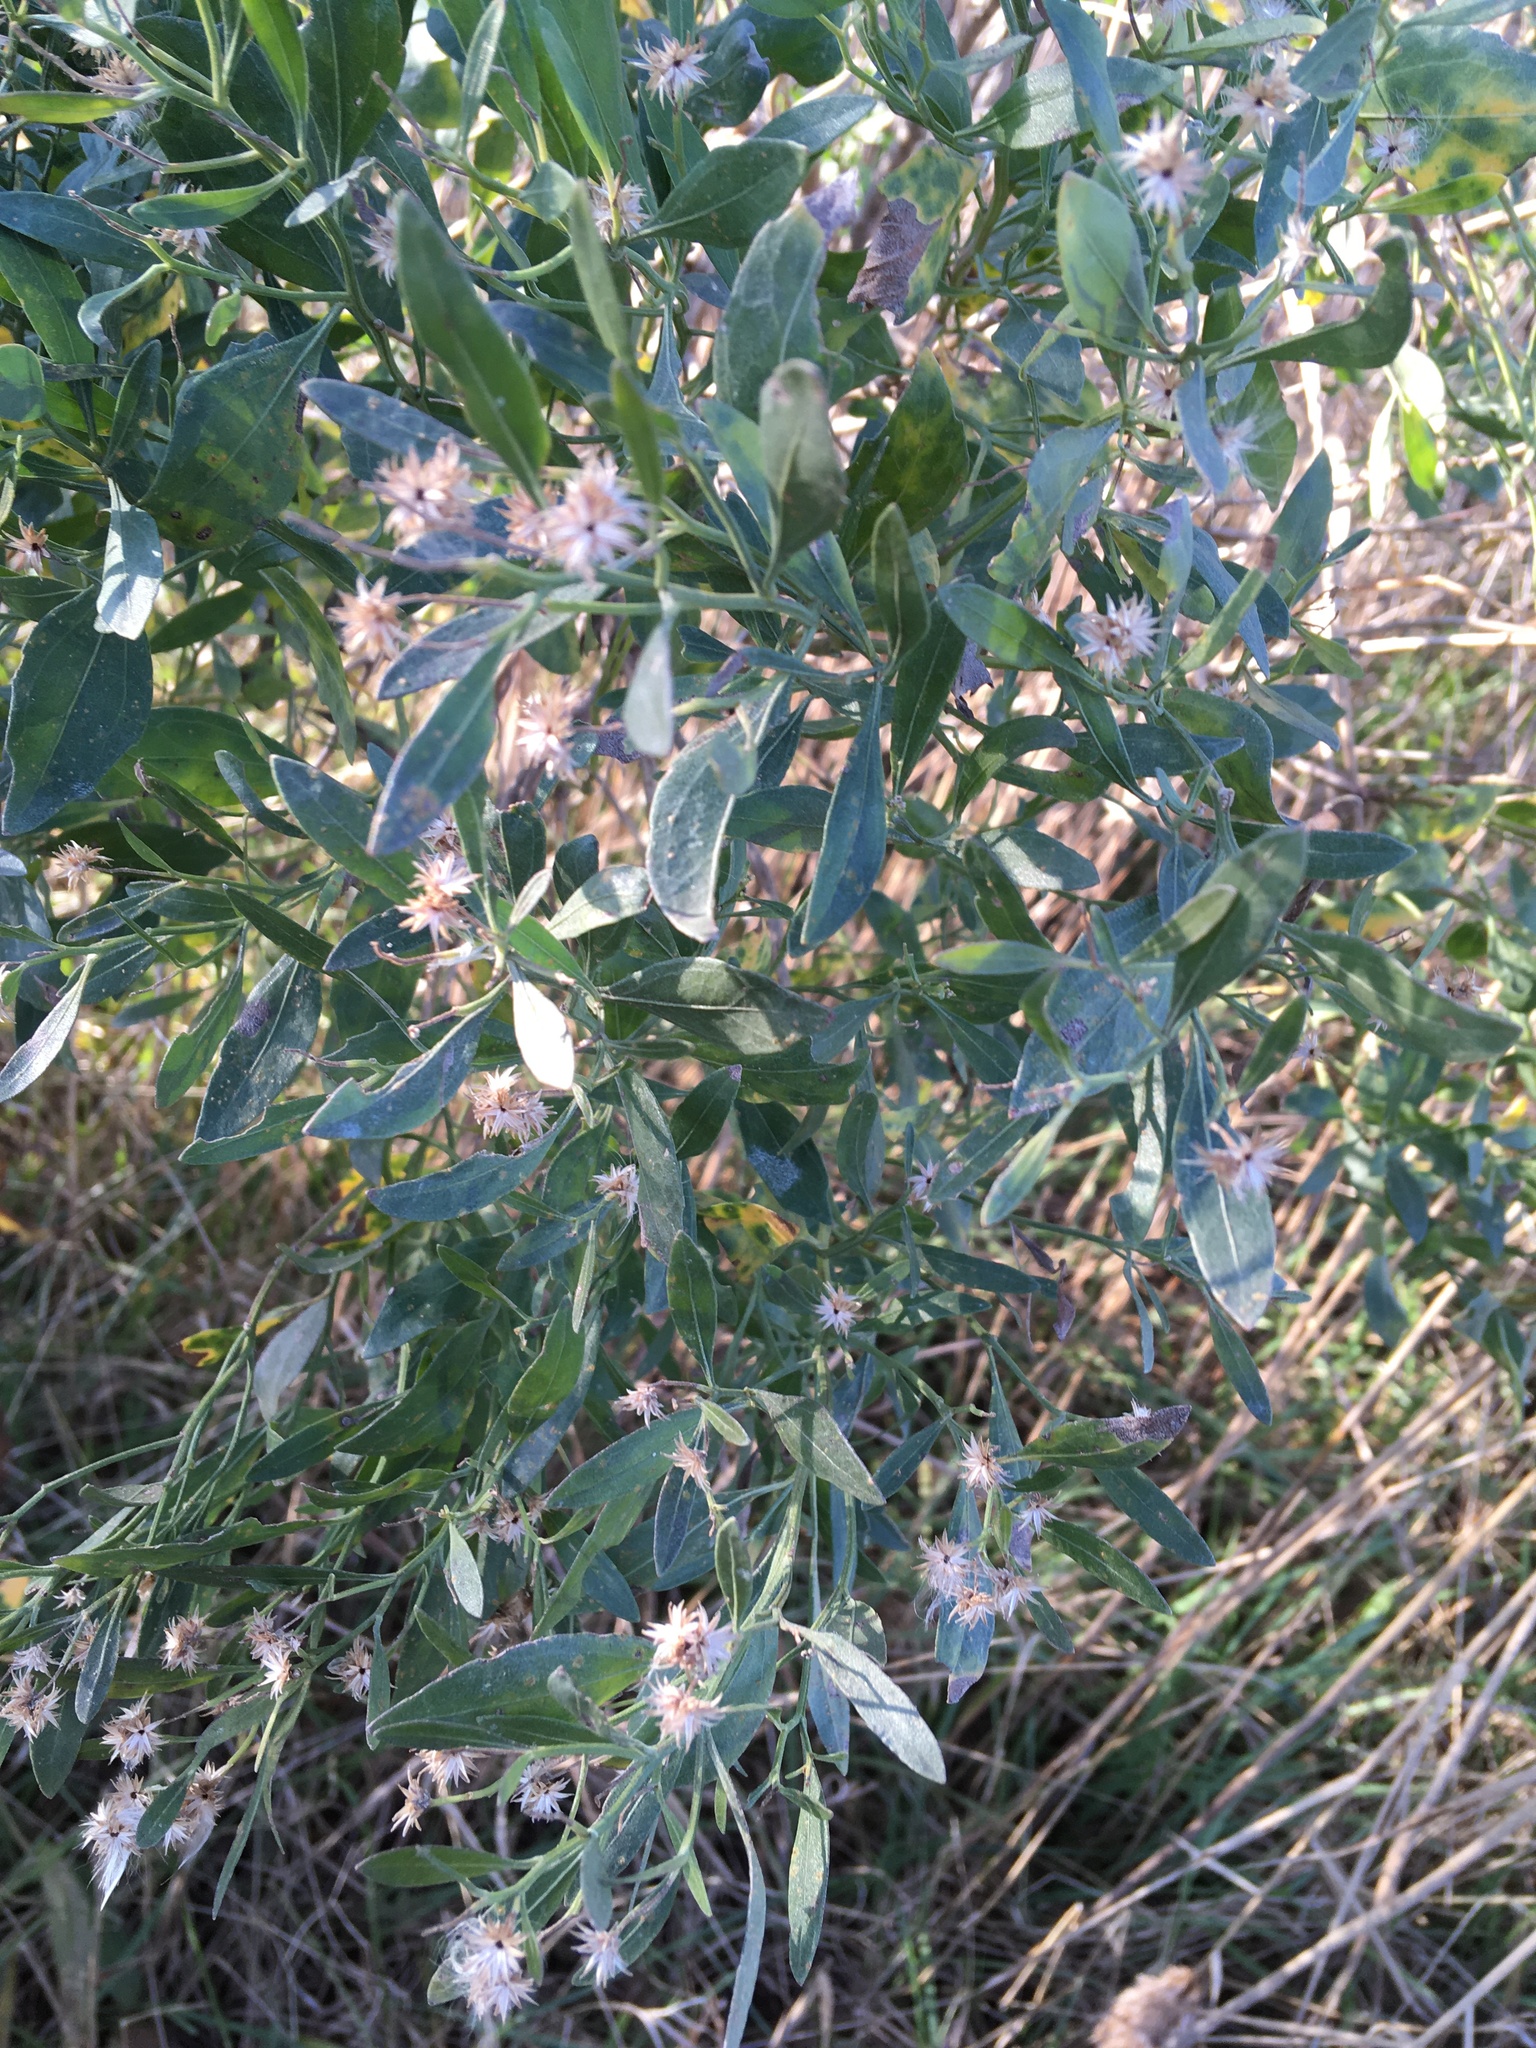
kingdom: Plantae
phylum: Tracheophyta
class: Magnoliopsida
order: Asterales
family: Asteraceae
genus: Baccharis
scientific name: Baccharis halimifolia
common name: Eastern baccharis
